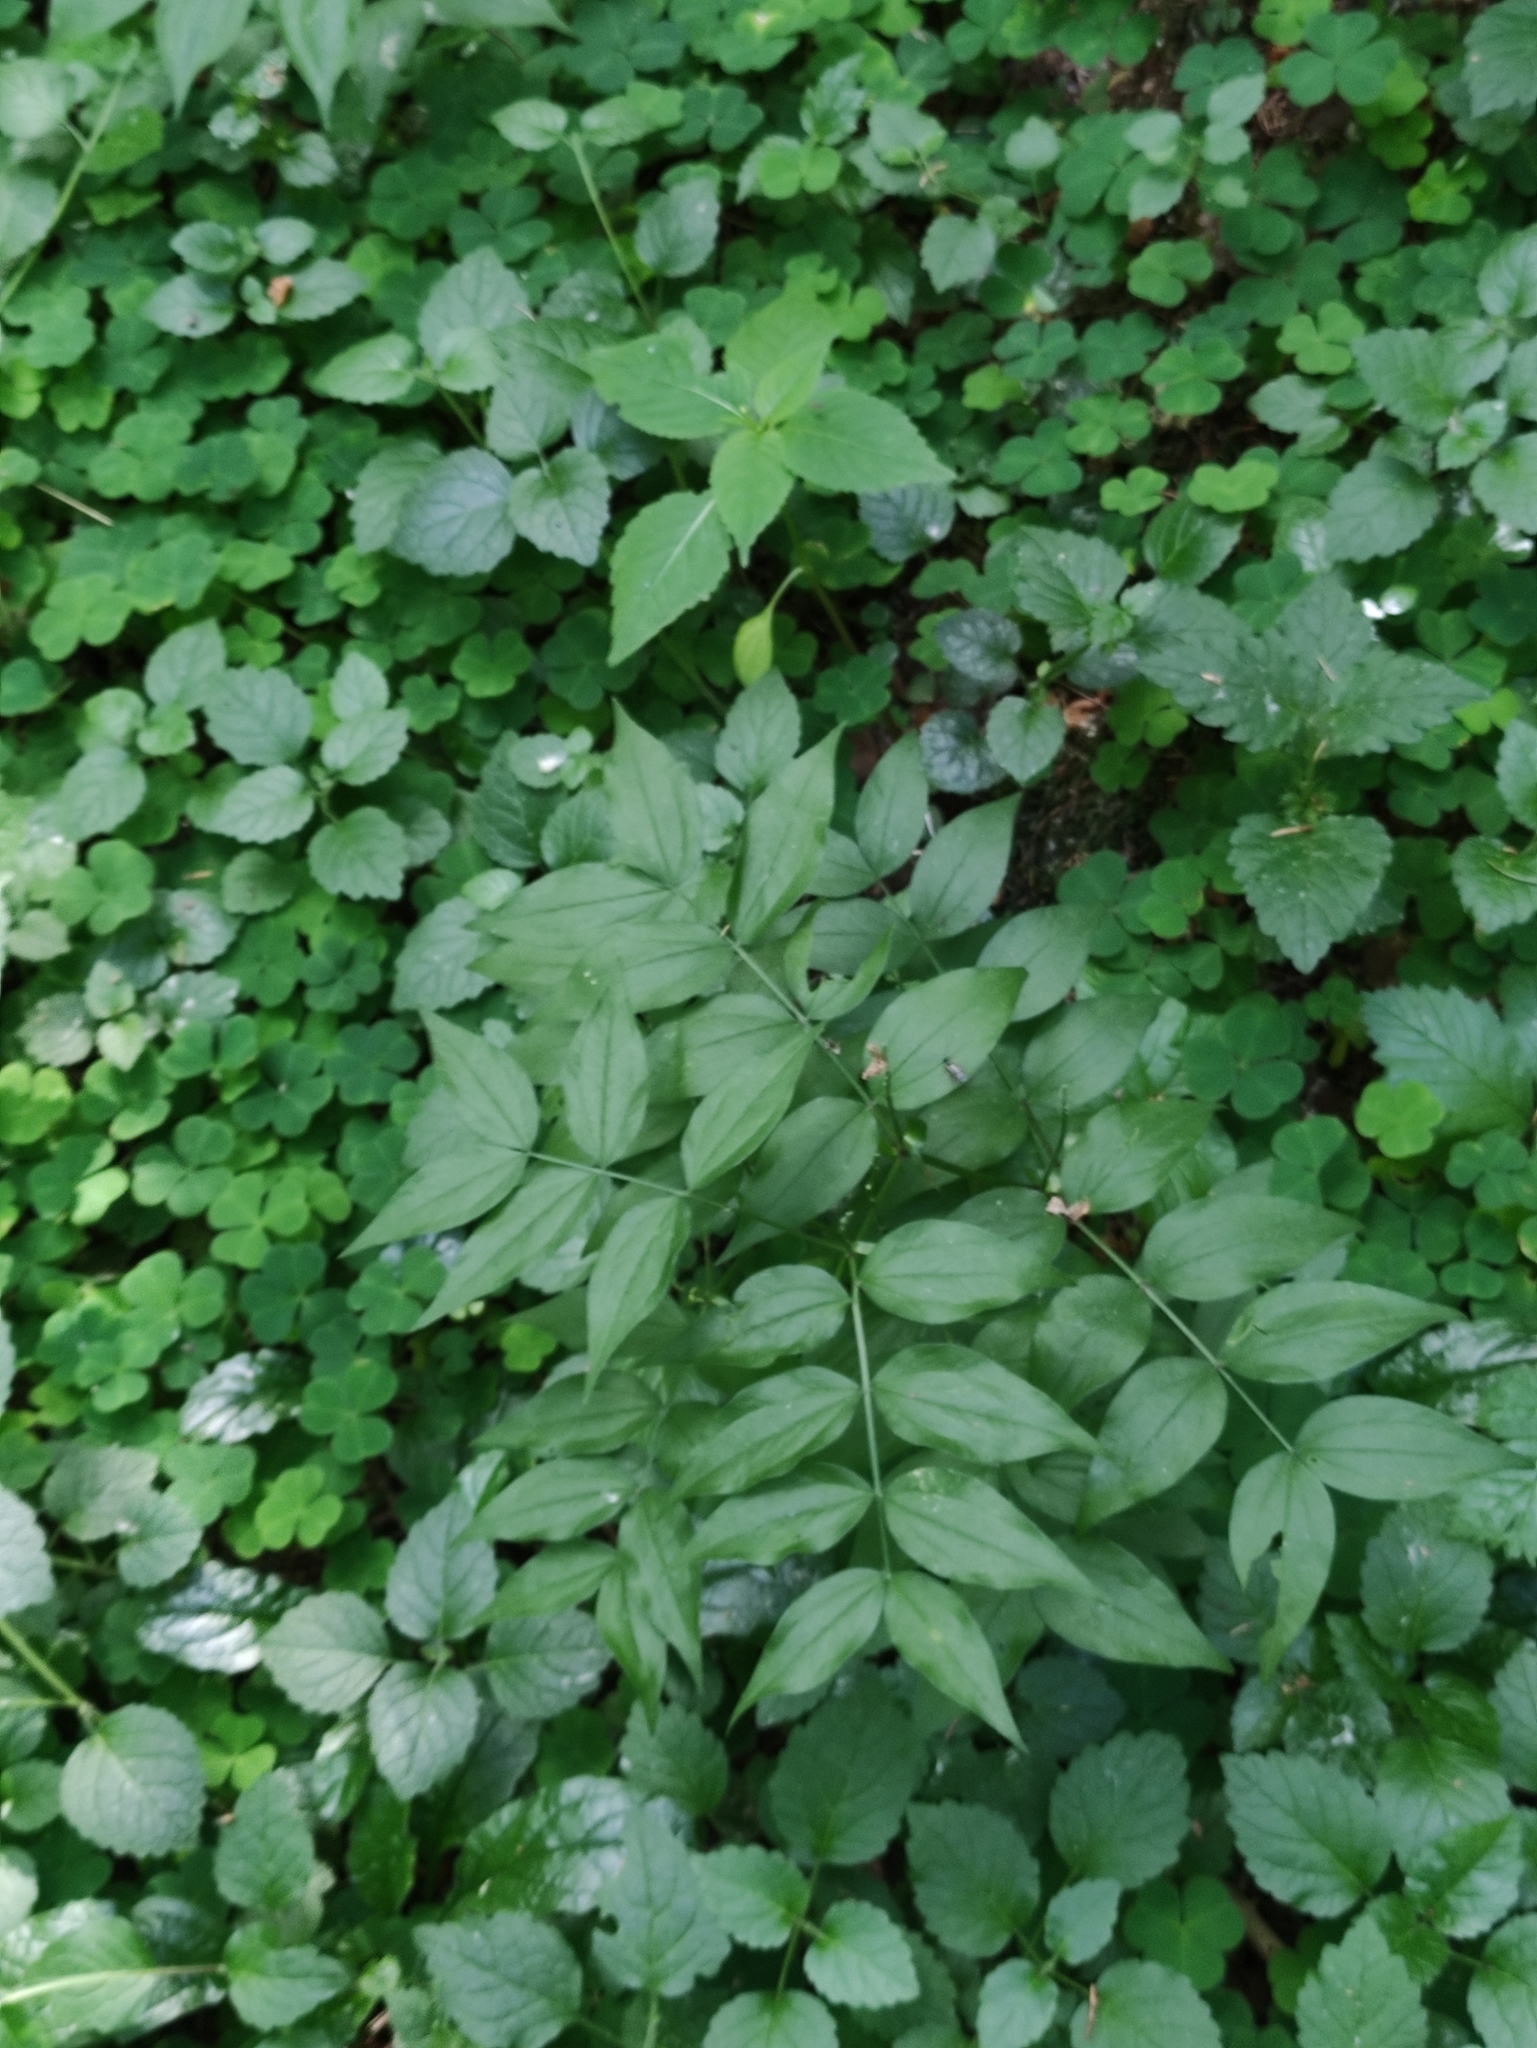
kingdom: Plantae
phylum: Tracheophyta
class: Magnoliopsida
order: Fabales
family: Fabaceae
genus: Lathyrus
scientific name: Lathyrus vernus
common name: Spring pea
